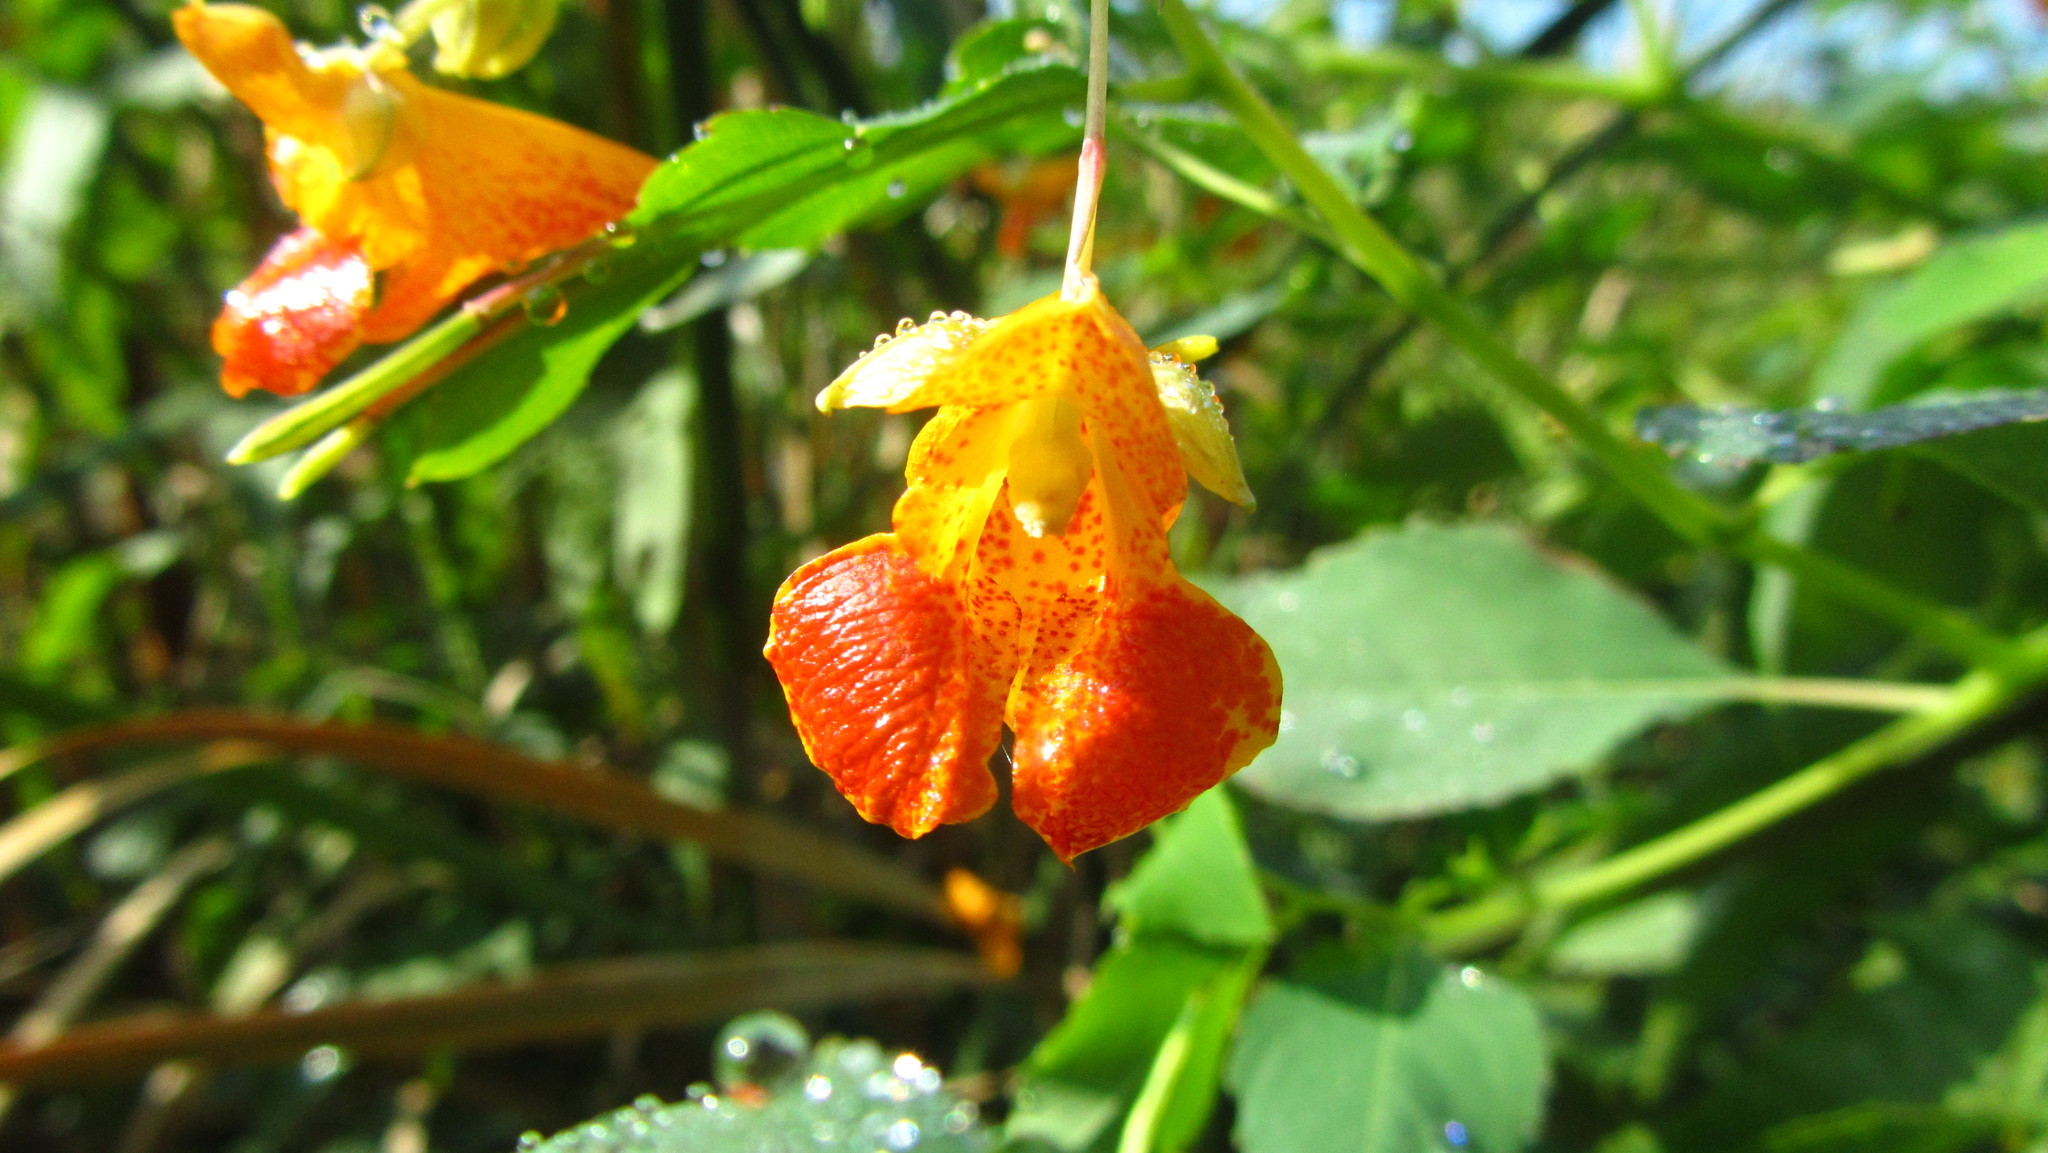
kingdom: Plantae
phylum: Tracheophyta
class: Magnoliopsida
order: Ericales
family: Balsaminaceae
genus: Impatiens
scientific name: Impatiens capensis
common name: Orange balsam
